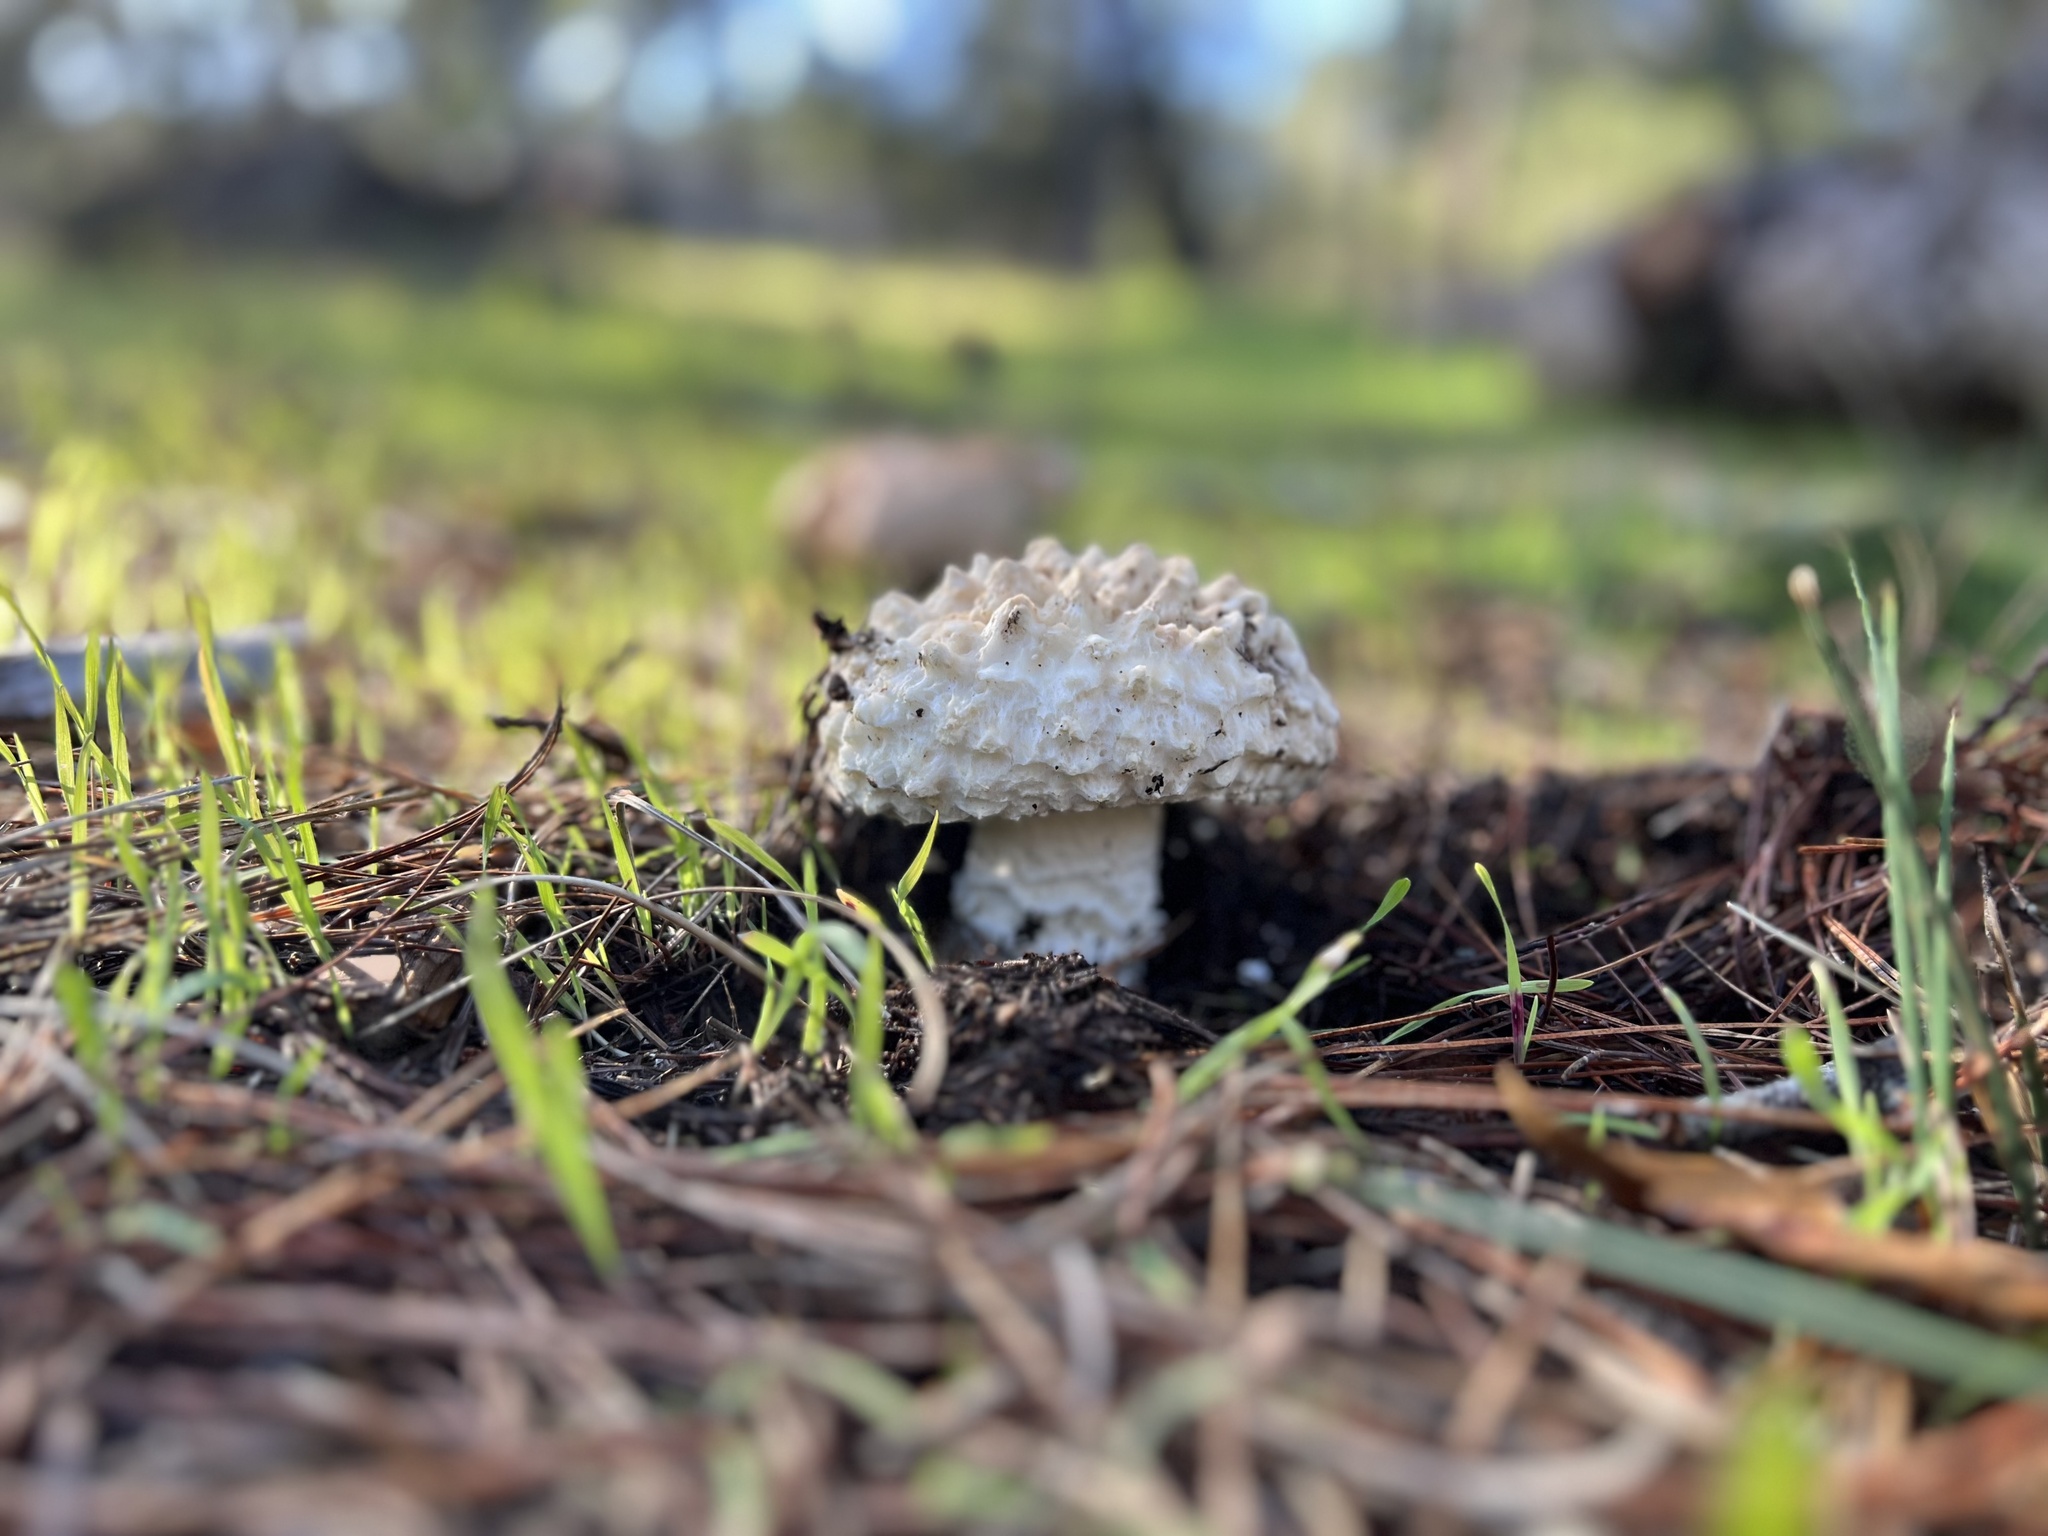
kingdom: Fungi
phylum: Basidiomycota
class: Agaricomycetes
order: Agaricales
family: Amanitaceae
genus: Amanita
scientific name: Amanita magniverrucata
